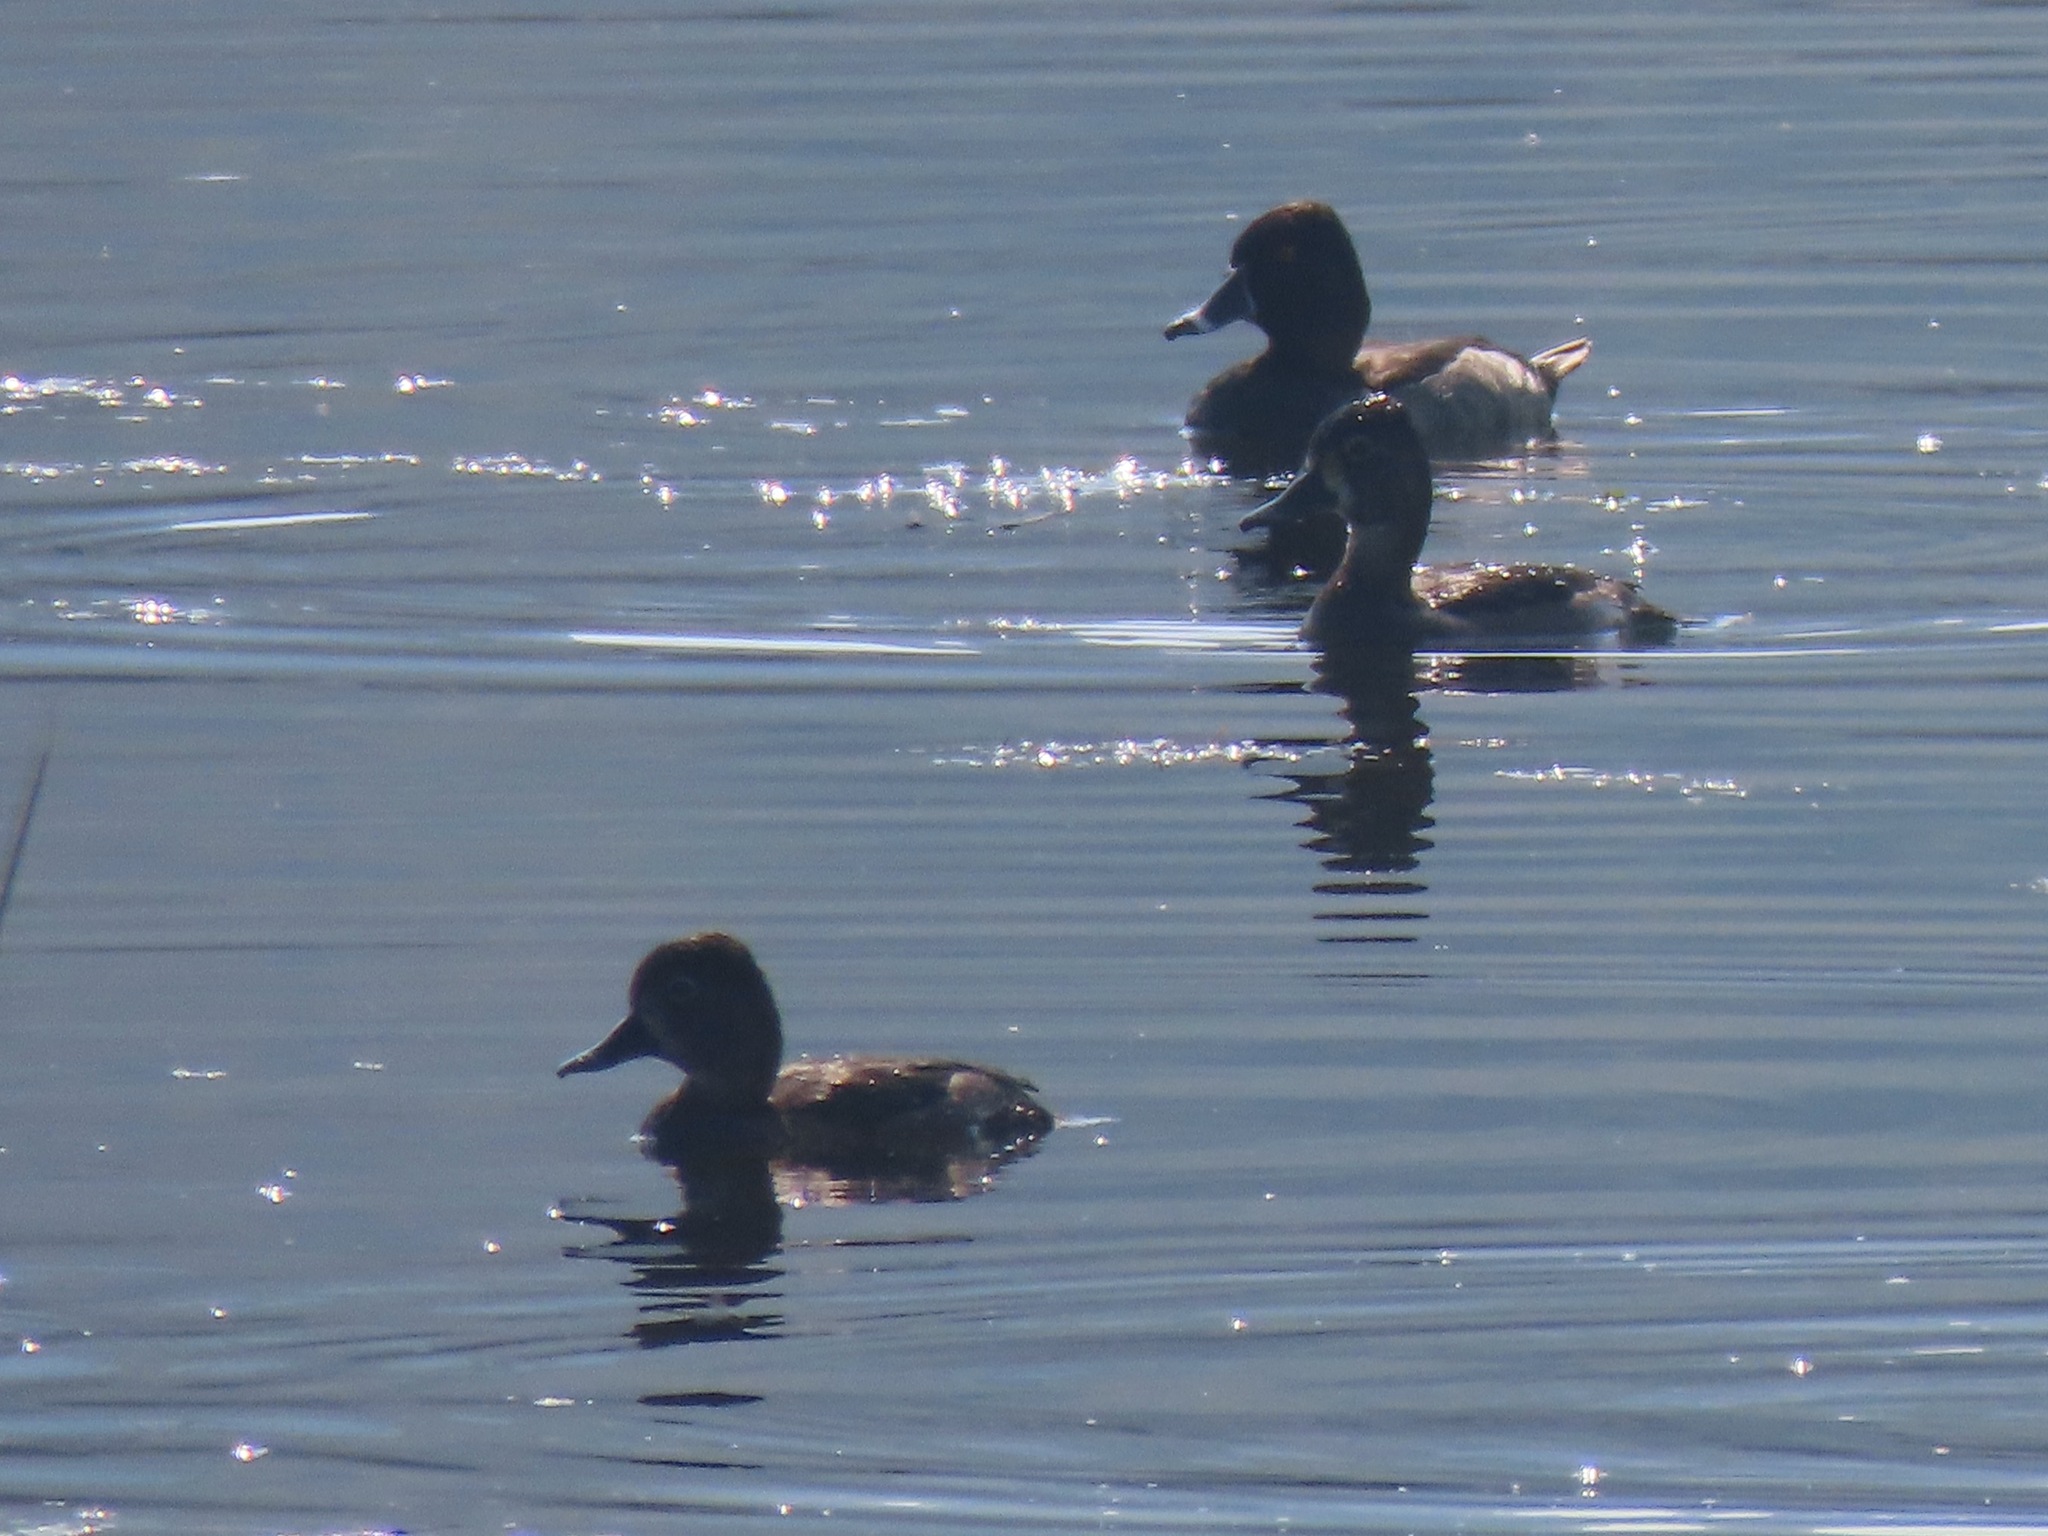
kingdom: Animalia
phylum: Chordata
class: Aves
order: Anseriformes
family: Anatidae
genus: Aythya
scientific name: Aythya collaris
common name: Ring-necked duck
